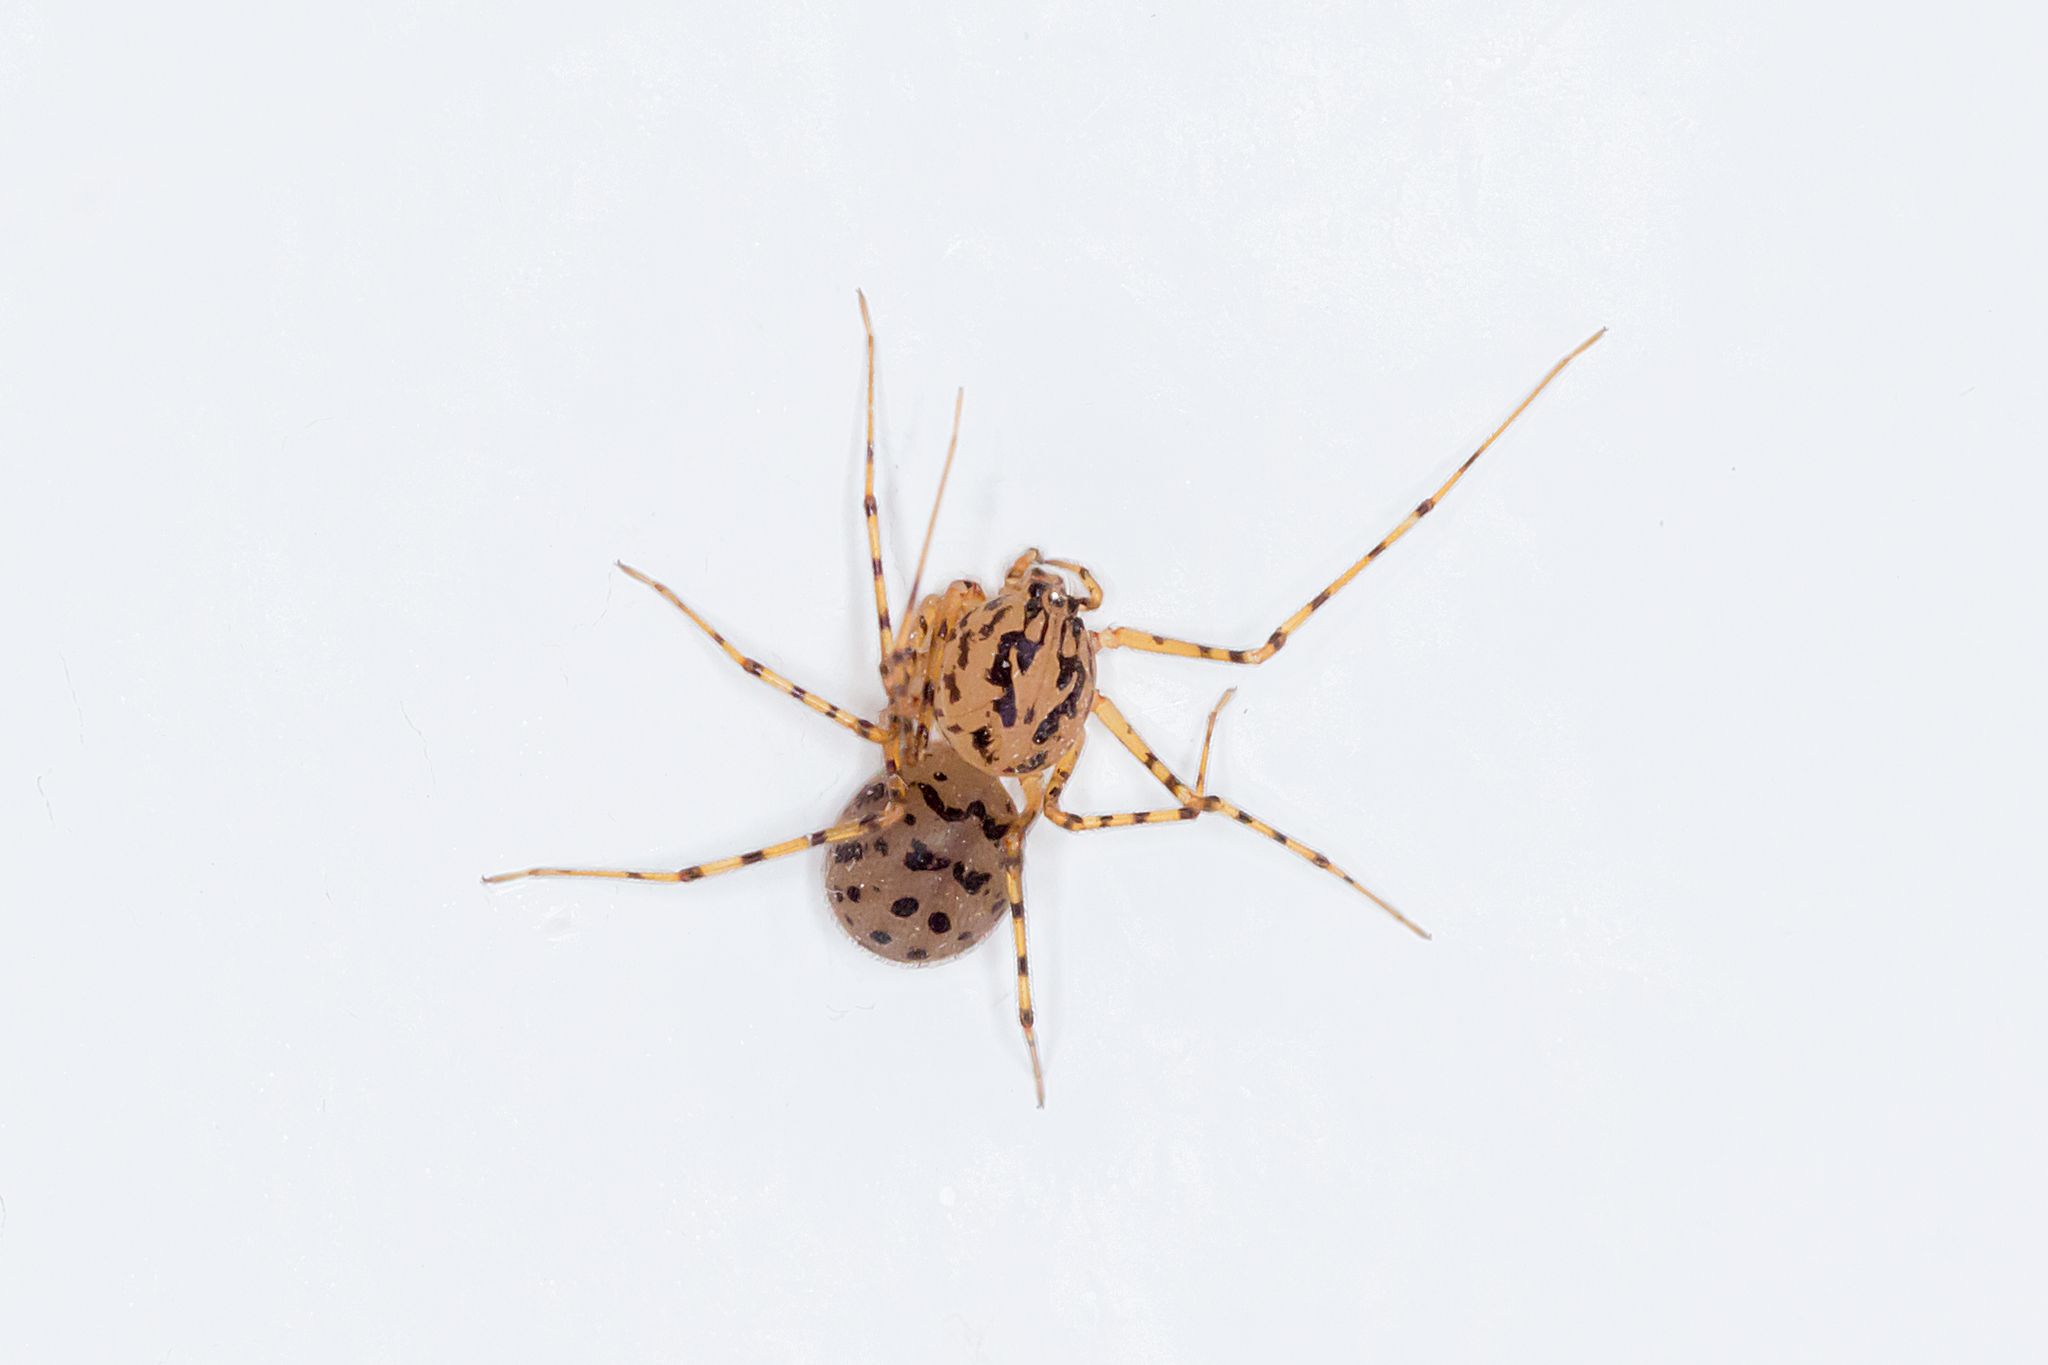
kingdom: Animalia
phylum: Arthropoda
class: Arachnida
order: Araneae
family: Scytodidae
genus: Scytodes
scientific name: Scytodes thoracica
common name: Spitting spider
